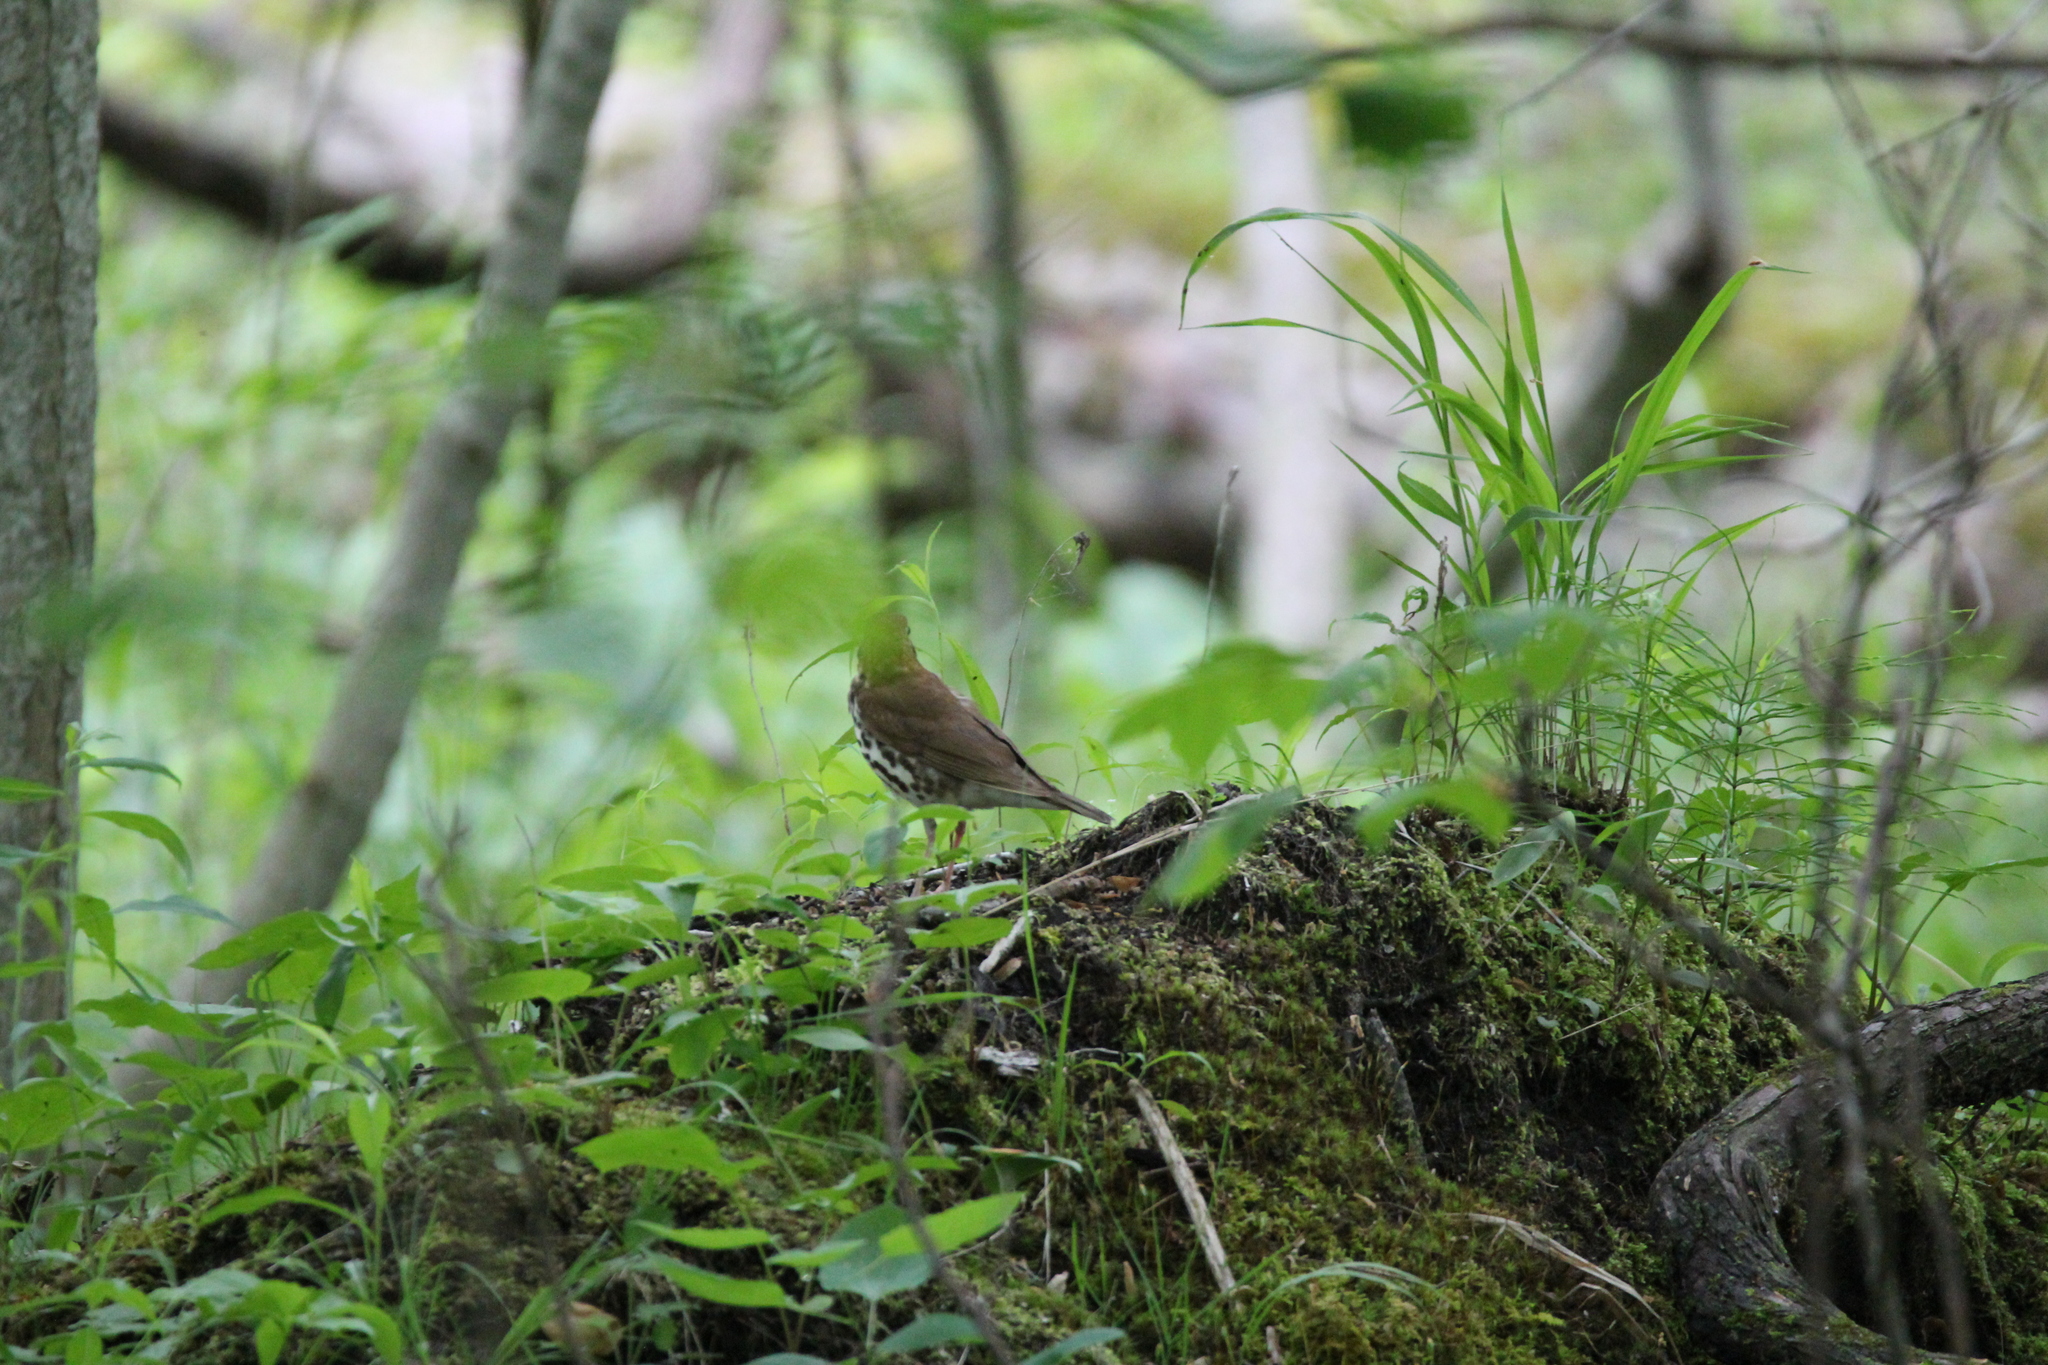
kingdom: Animalia
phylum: Chordata
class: Aves
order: Passeriformes
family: Turdidae
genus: Hylocichla
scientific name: Hylocichla mustelina
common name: Wood thrush
